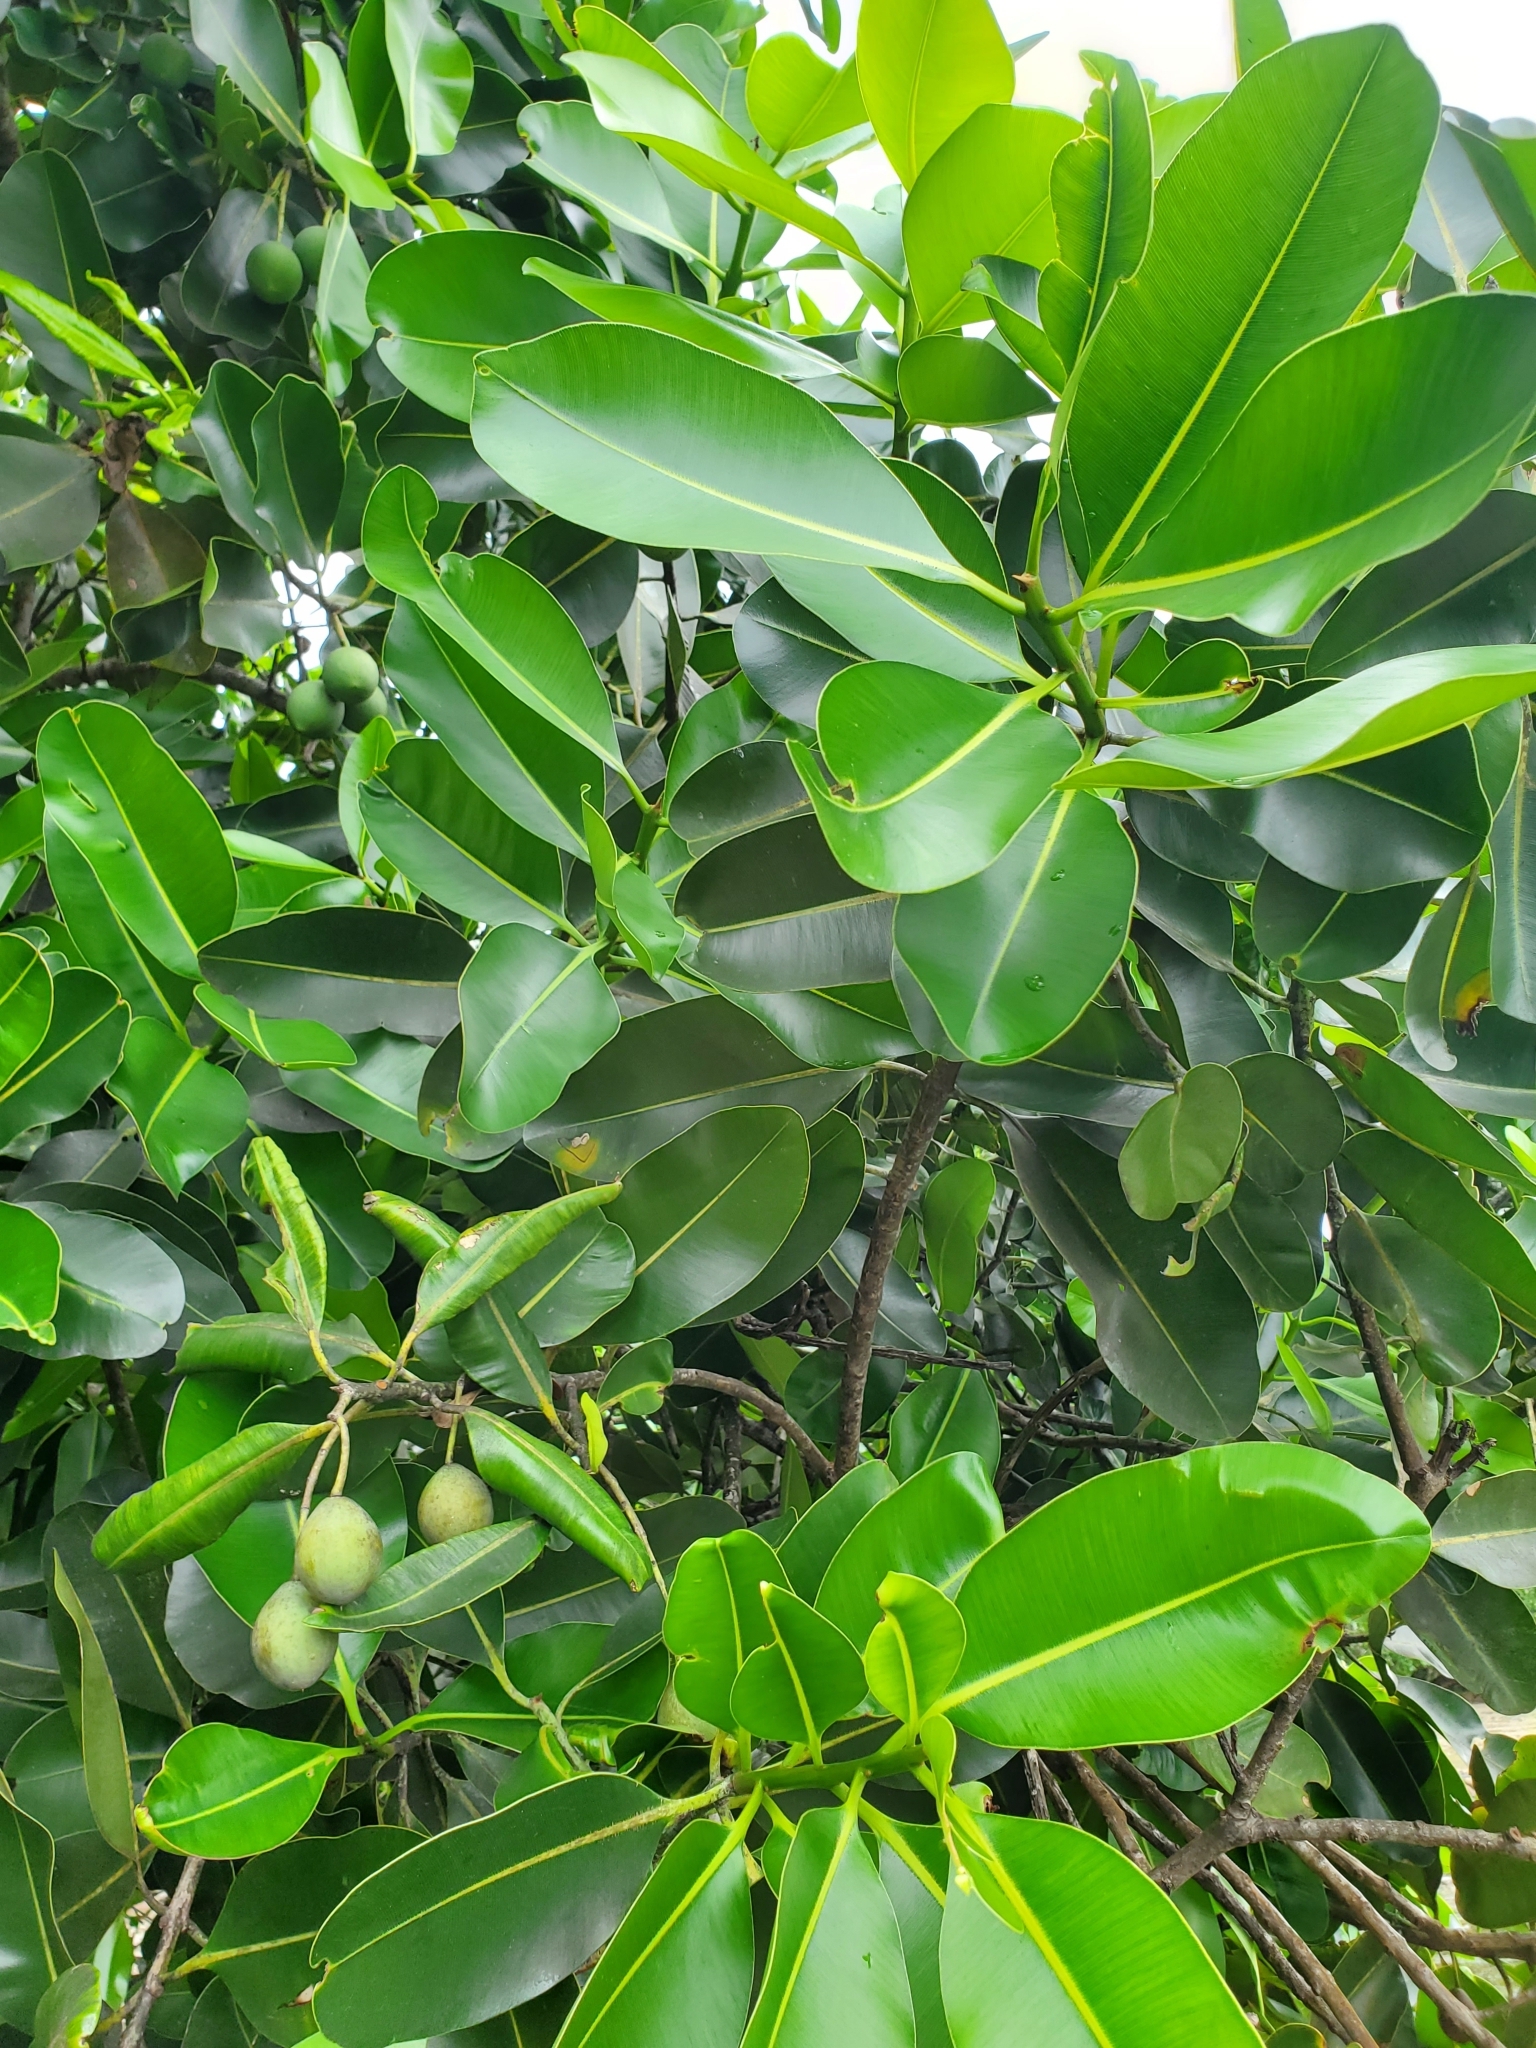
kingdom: Plantae
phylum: Tracheophyta
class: Magnoliopsida
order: Malpighiales
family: Calophyllaceae
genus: Calophyllum
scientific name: Calophyllum inophyllum
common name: Alexandrian laurel
